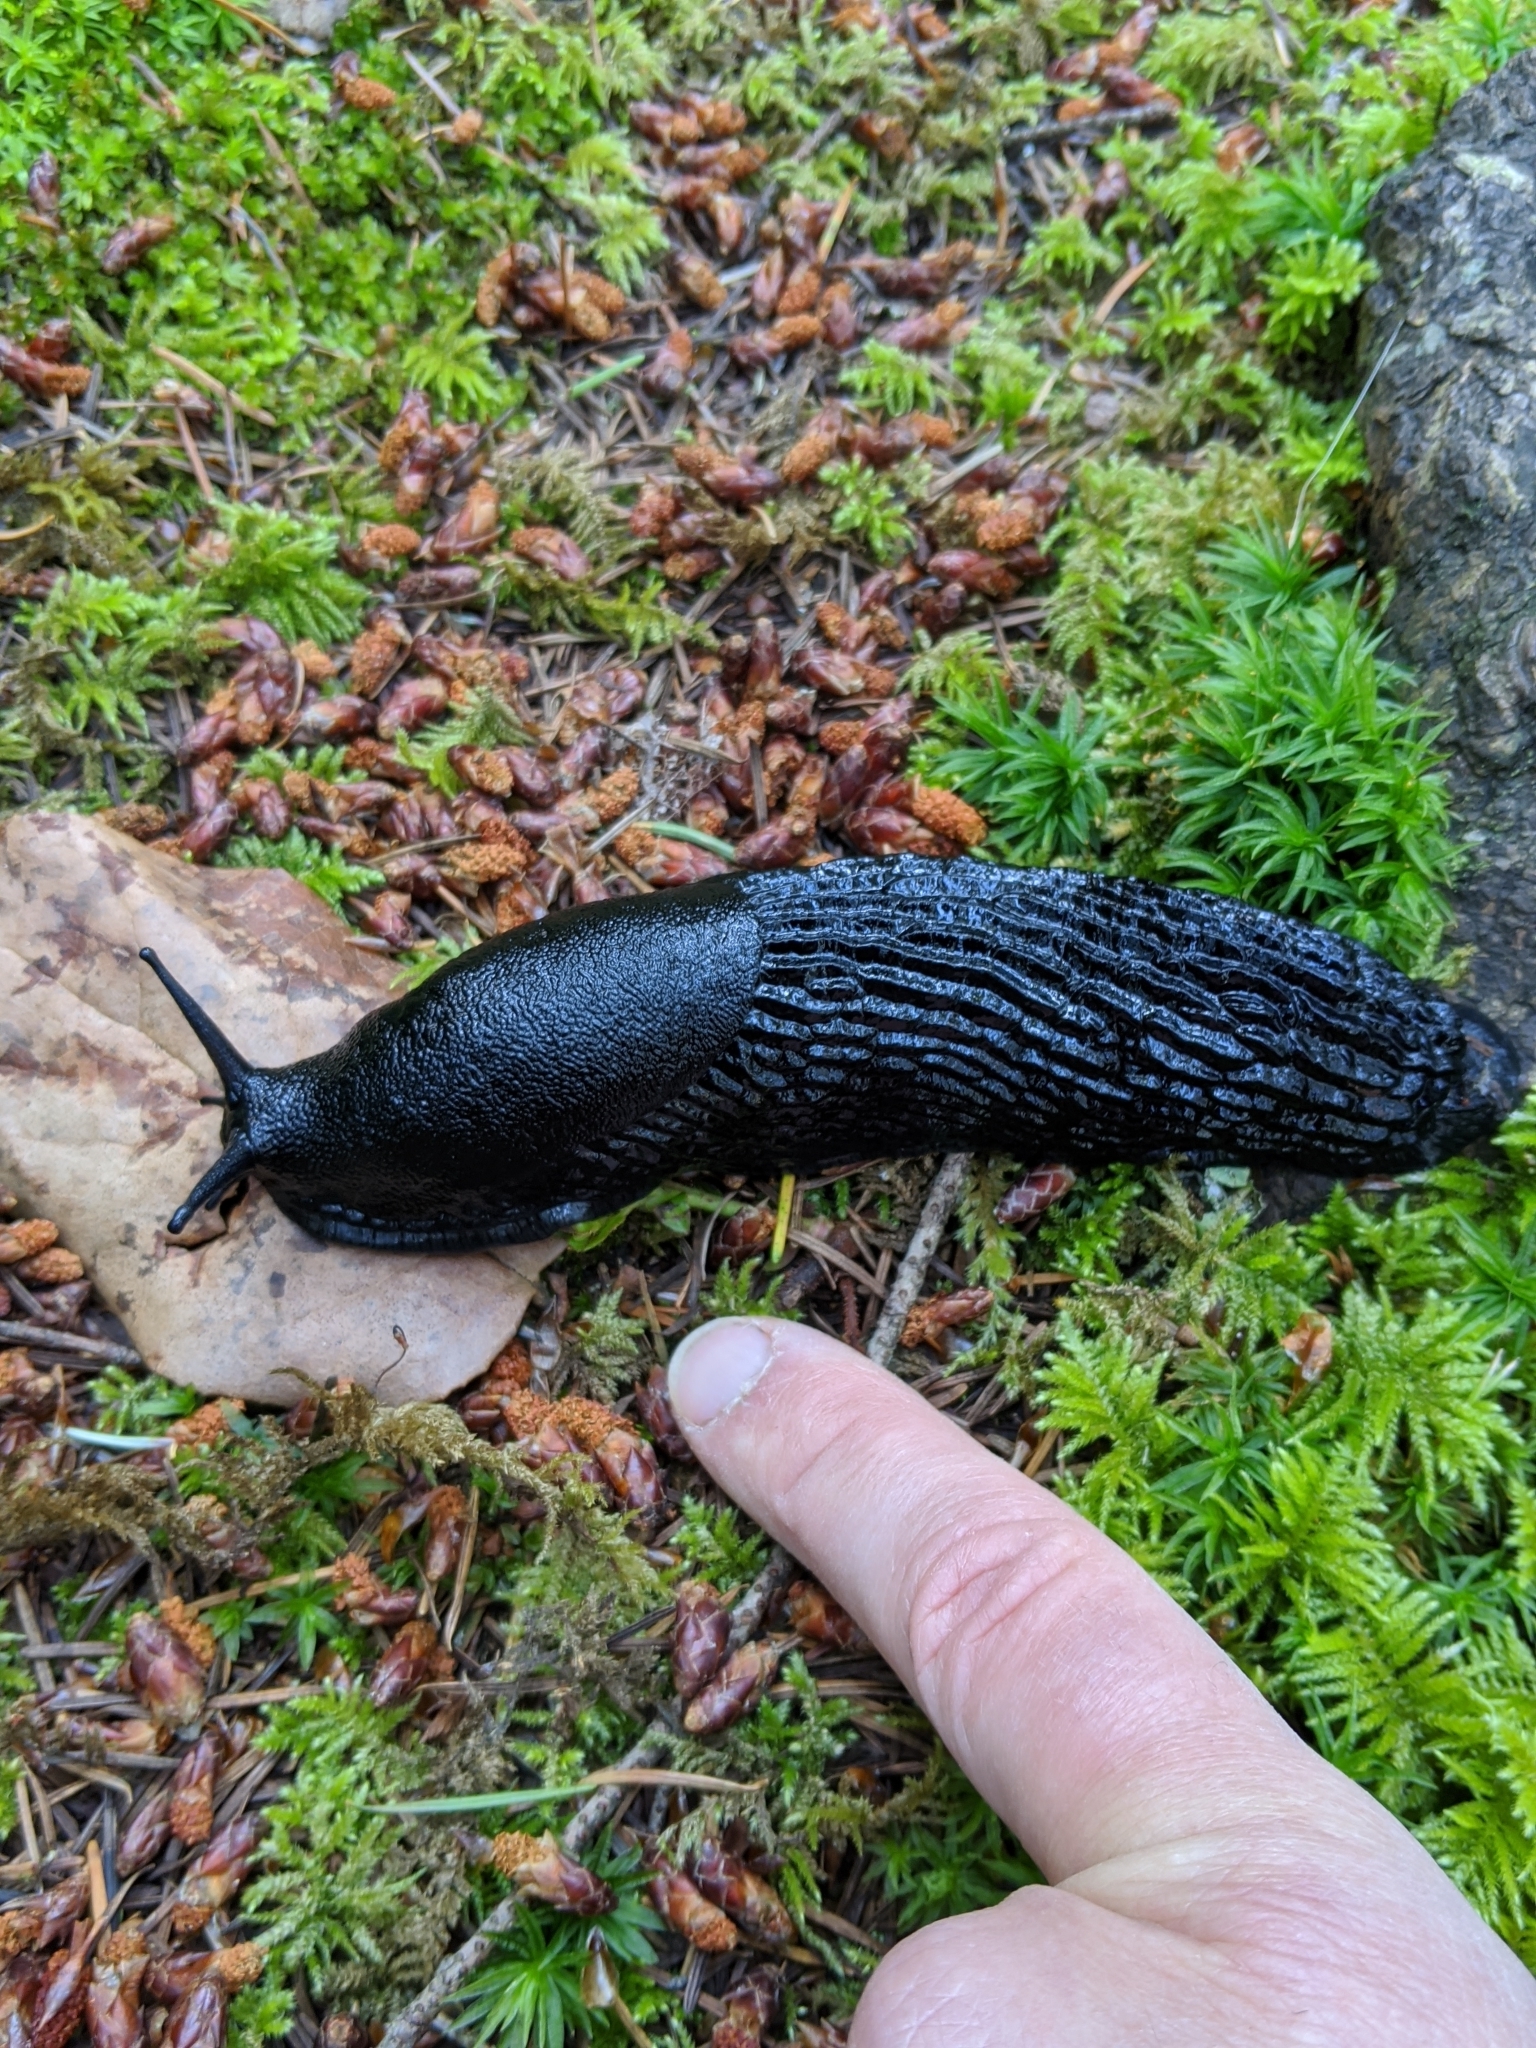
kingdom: Animalia
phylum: Mollusca
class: Gastropoda
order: Stylommatophora
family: Arionidae
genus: Arion
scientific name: Arion
